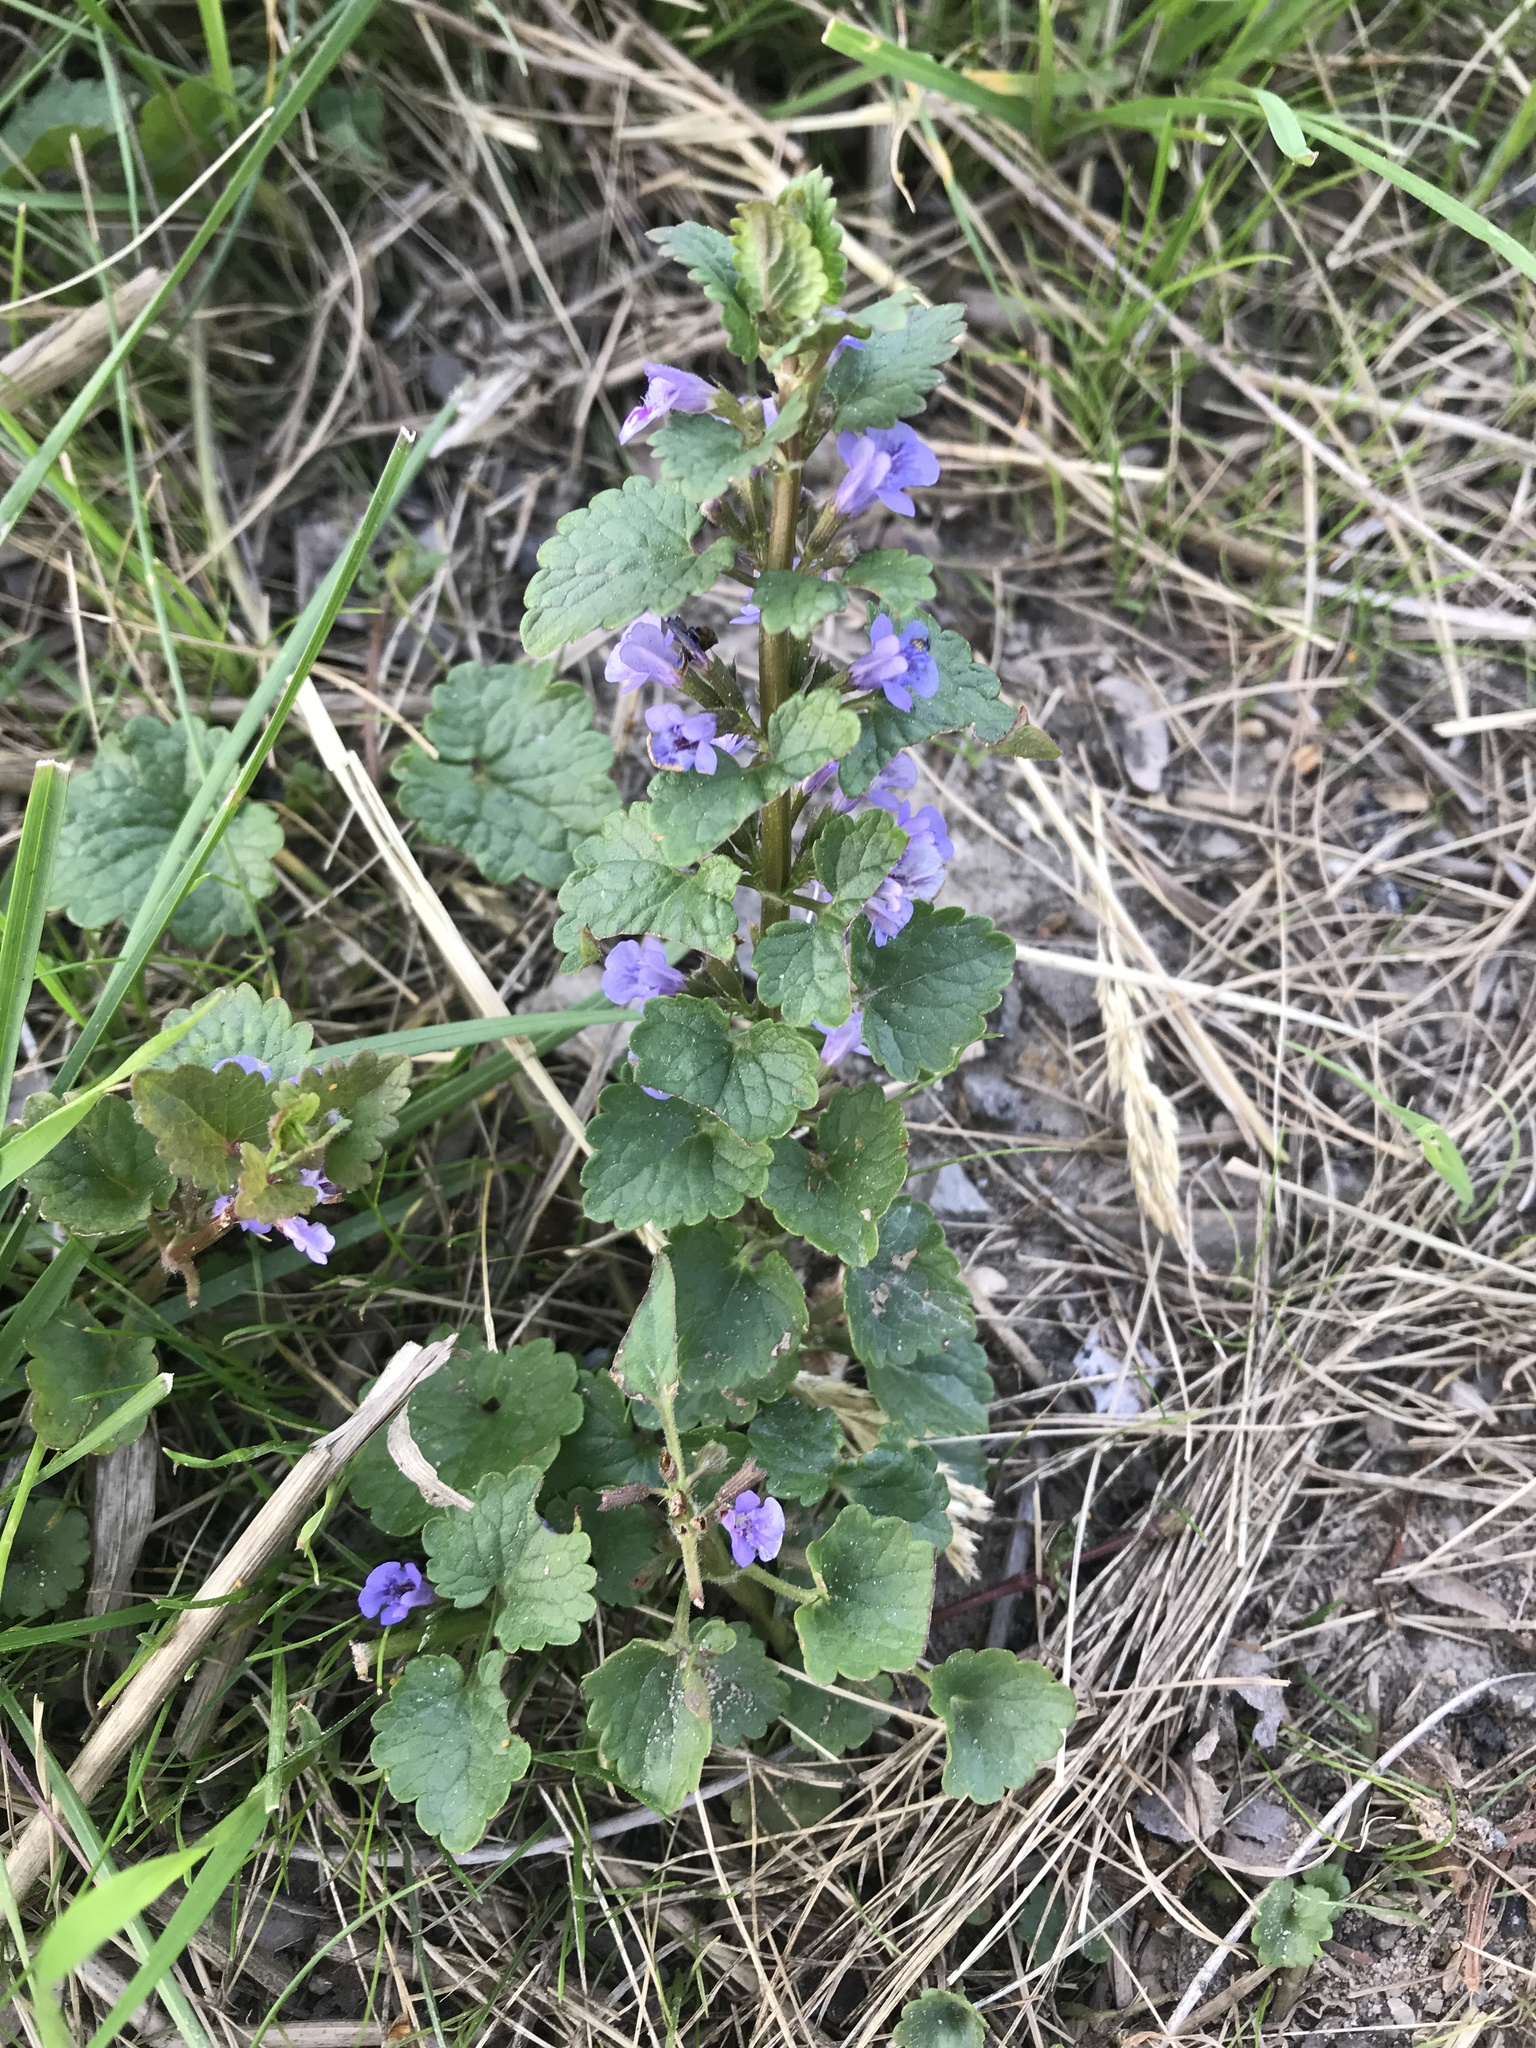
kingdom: Plantae
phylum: Tracheophyta
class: Magnoliopsida
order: Lamiales
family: Lamiaceae
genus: Glechoma
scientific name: Glechoma hederacea
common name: Ground ivy
